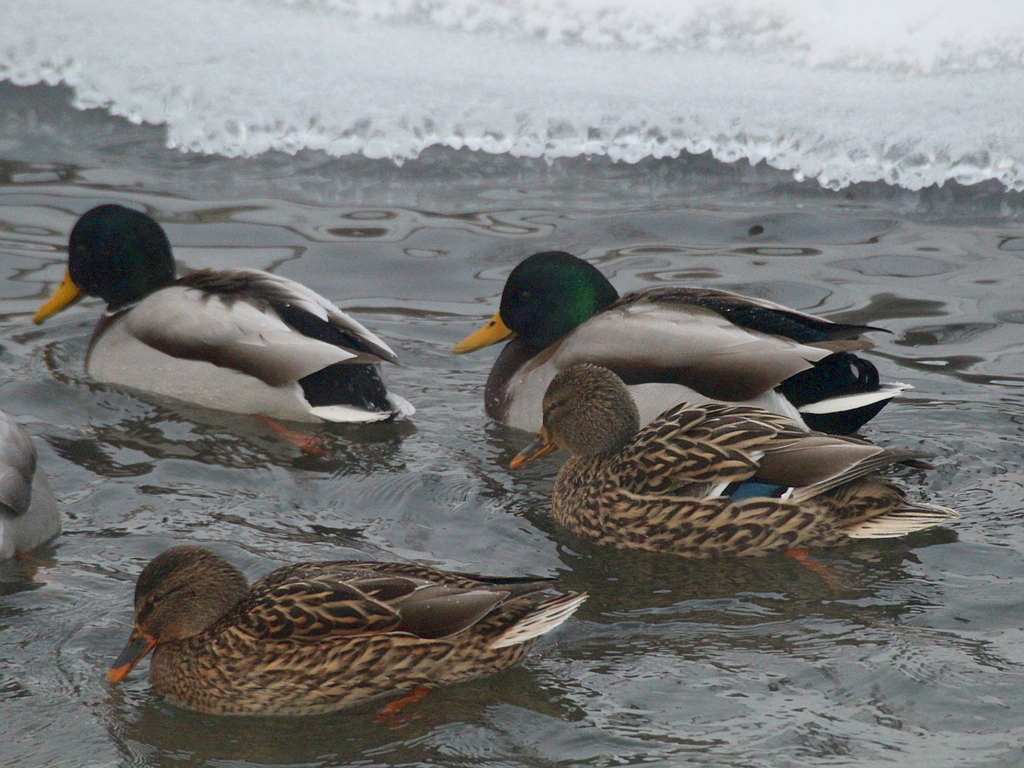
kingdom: Animalia
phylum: Chordata
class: Aves
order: Anseriformes
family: Anatidae
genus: Anas
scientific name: Anas platyrhynchos
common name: Mallard
